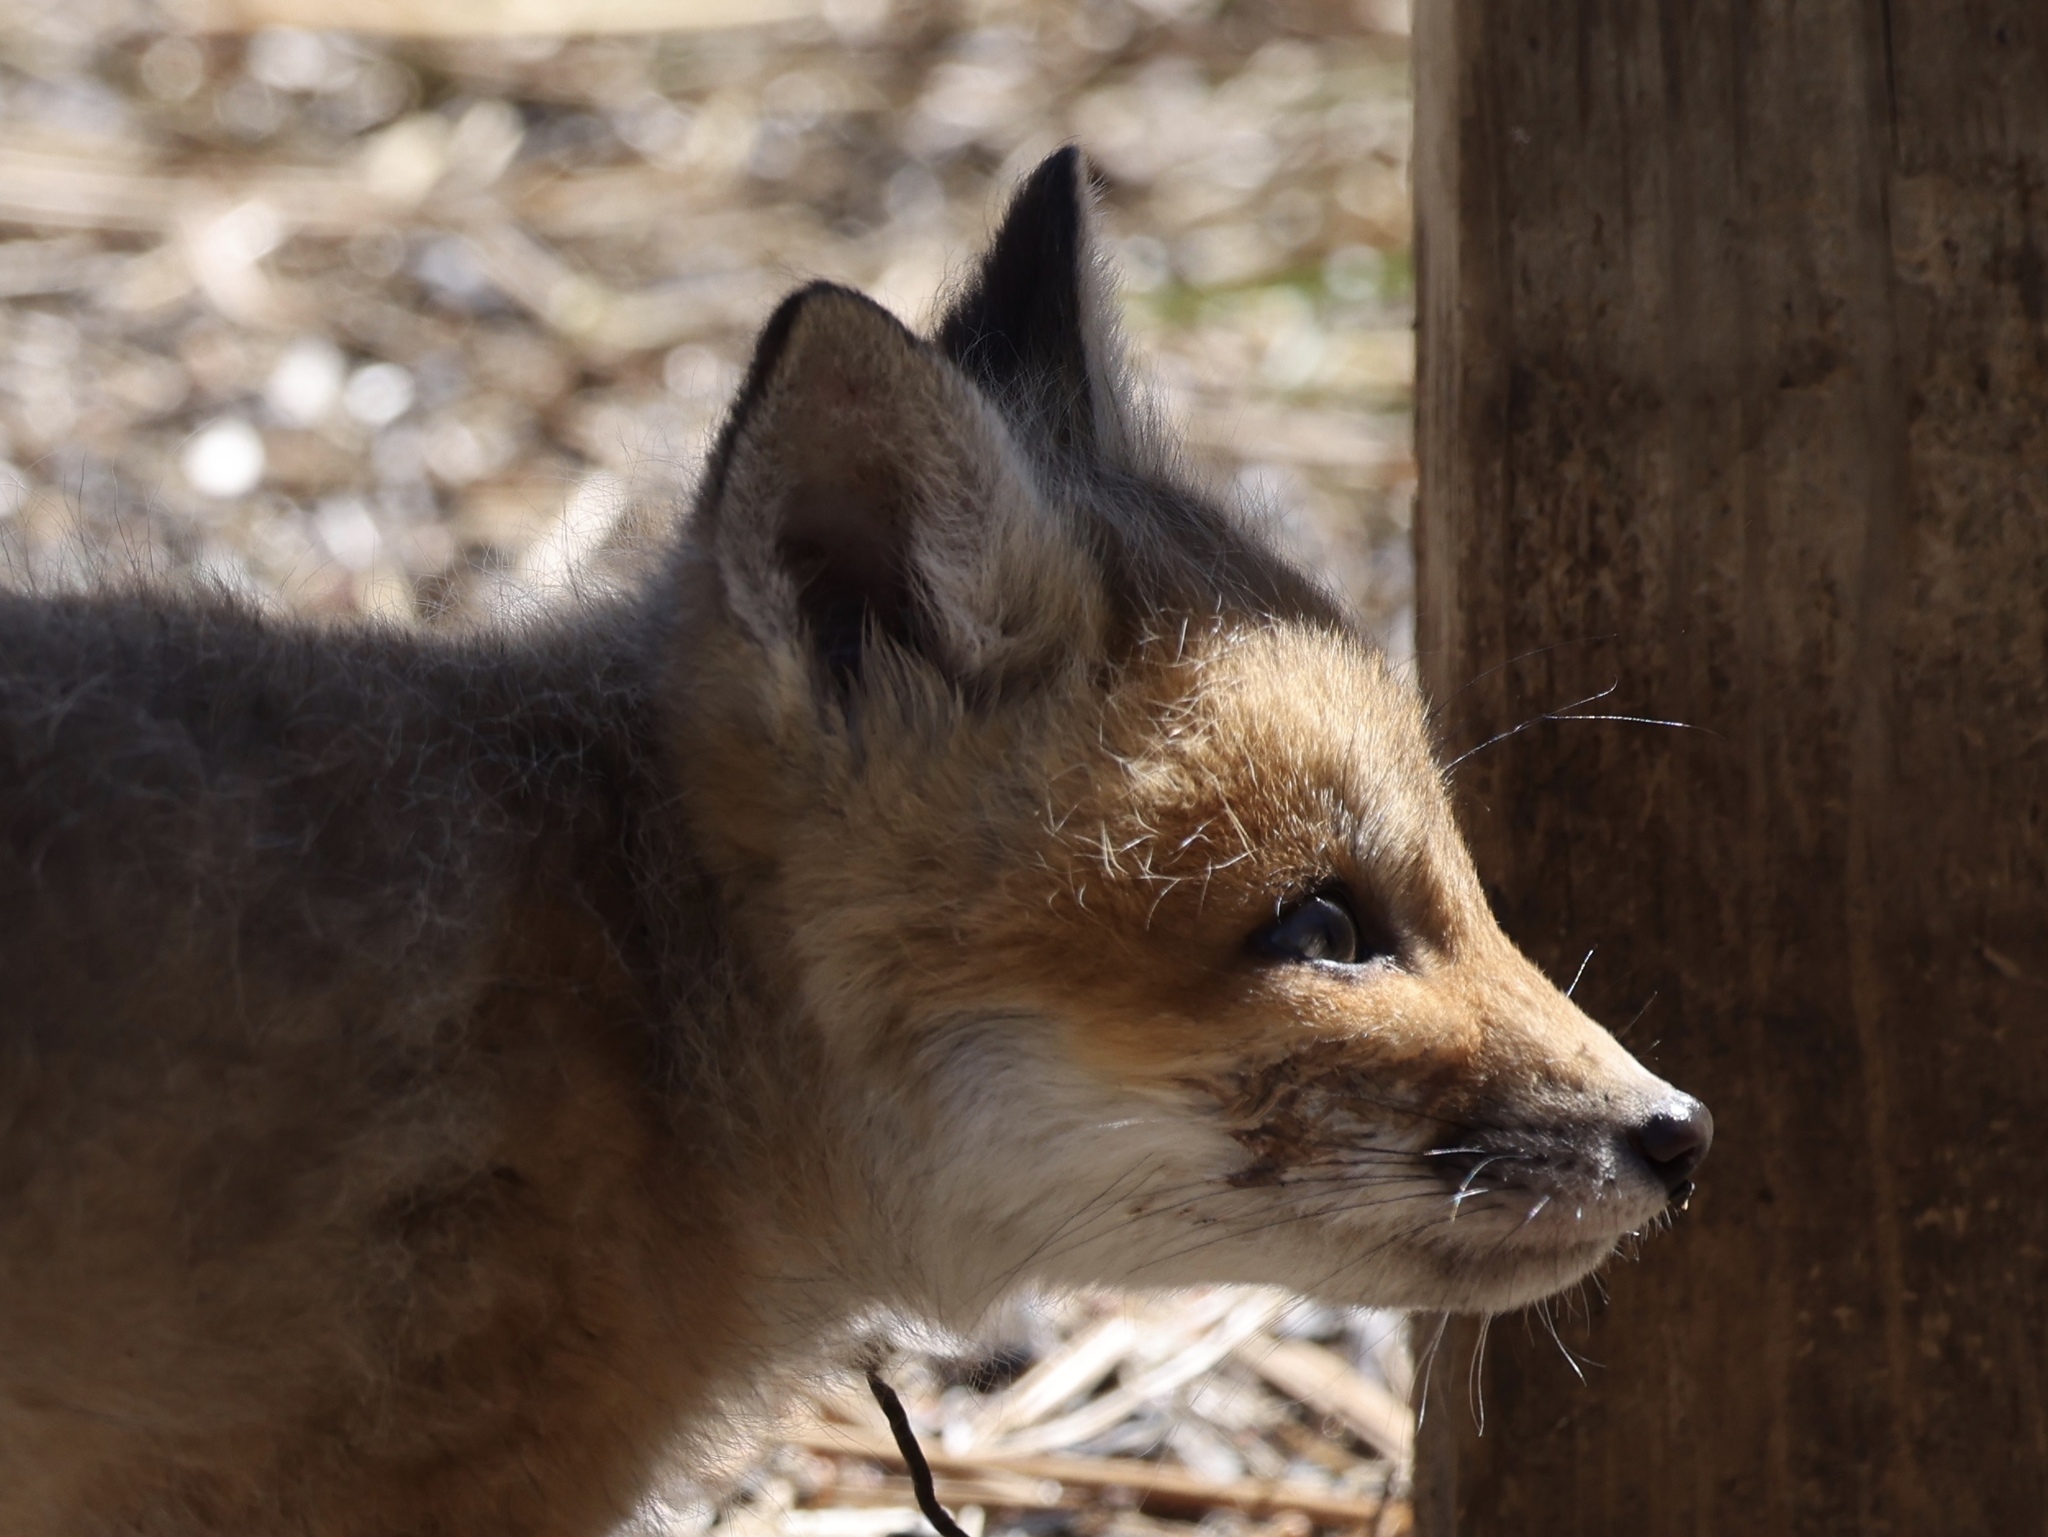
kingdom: Animalia
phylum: Chordata
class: Mammalia
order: Carnivora
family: Canidae
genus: Vulpes
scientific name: Vulpes vulpes
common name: Red fox
